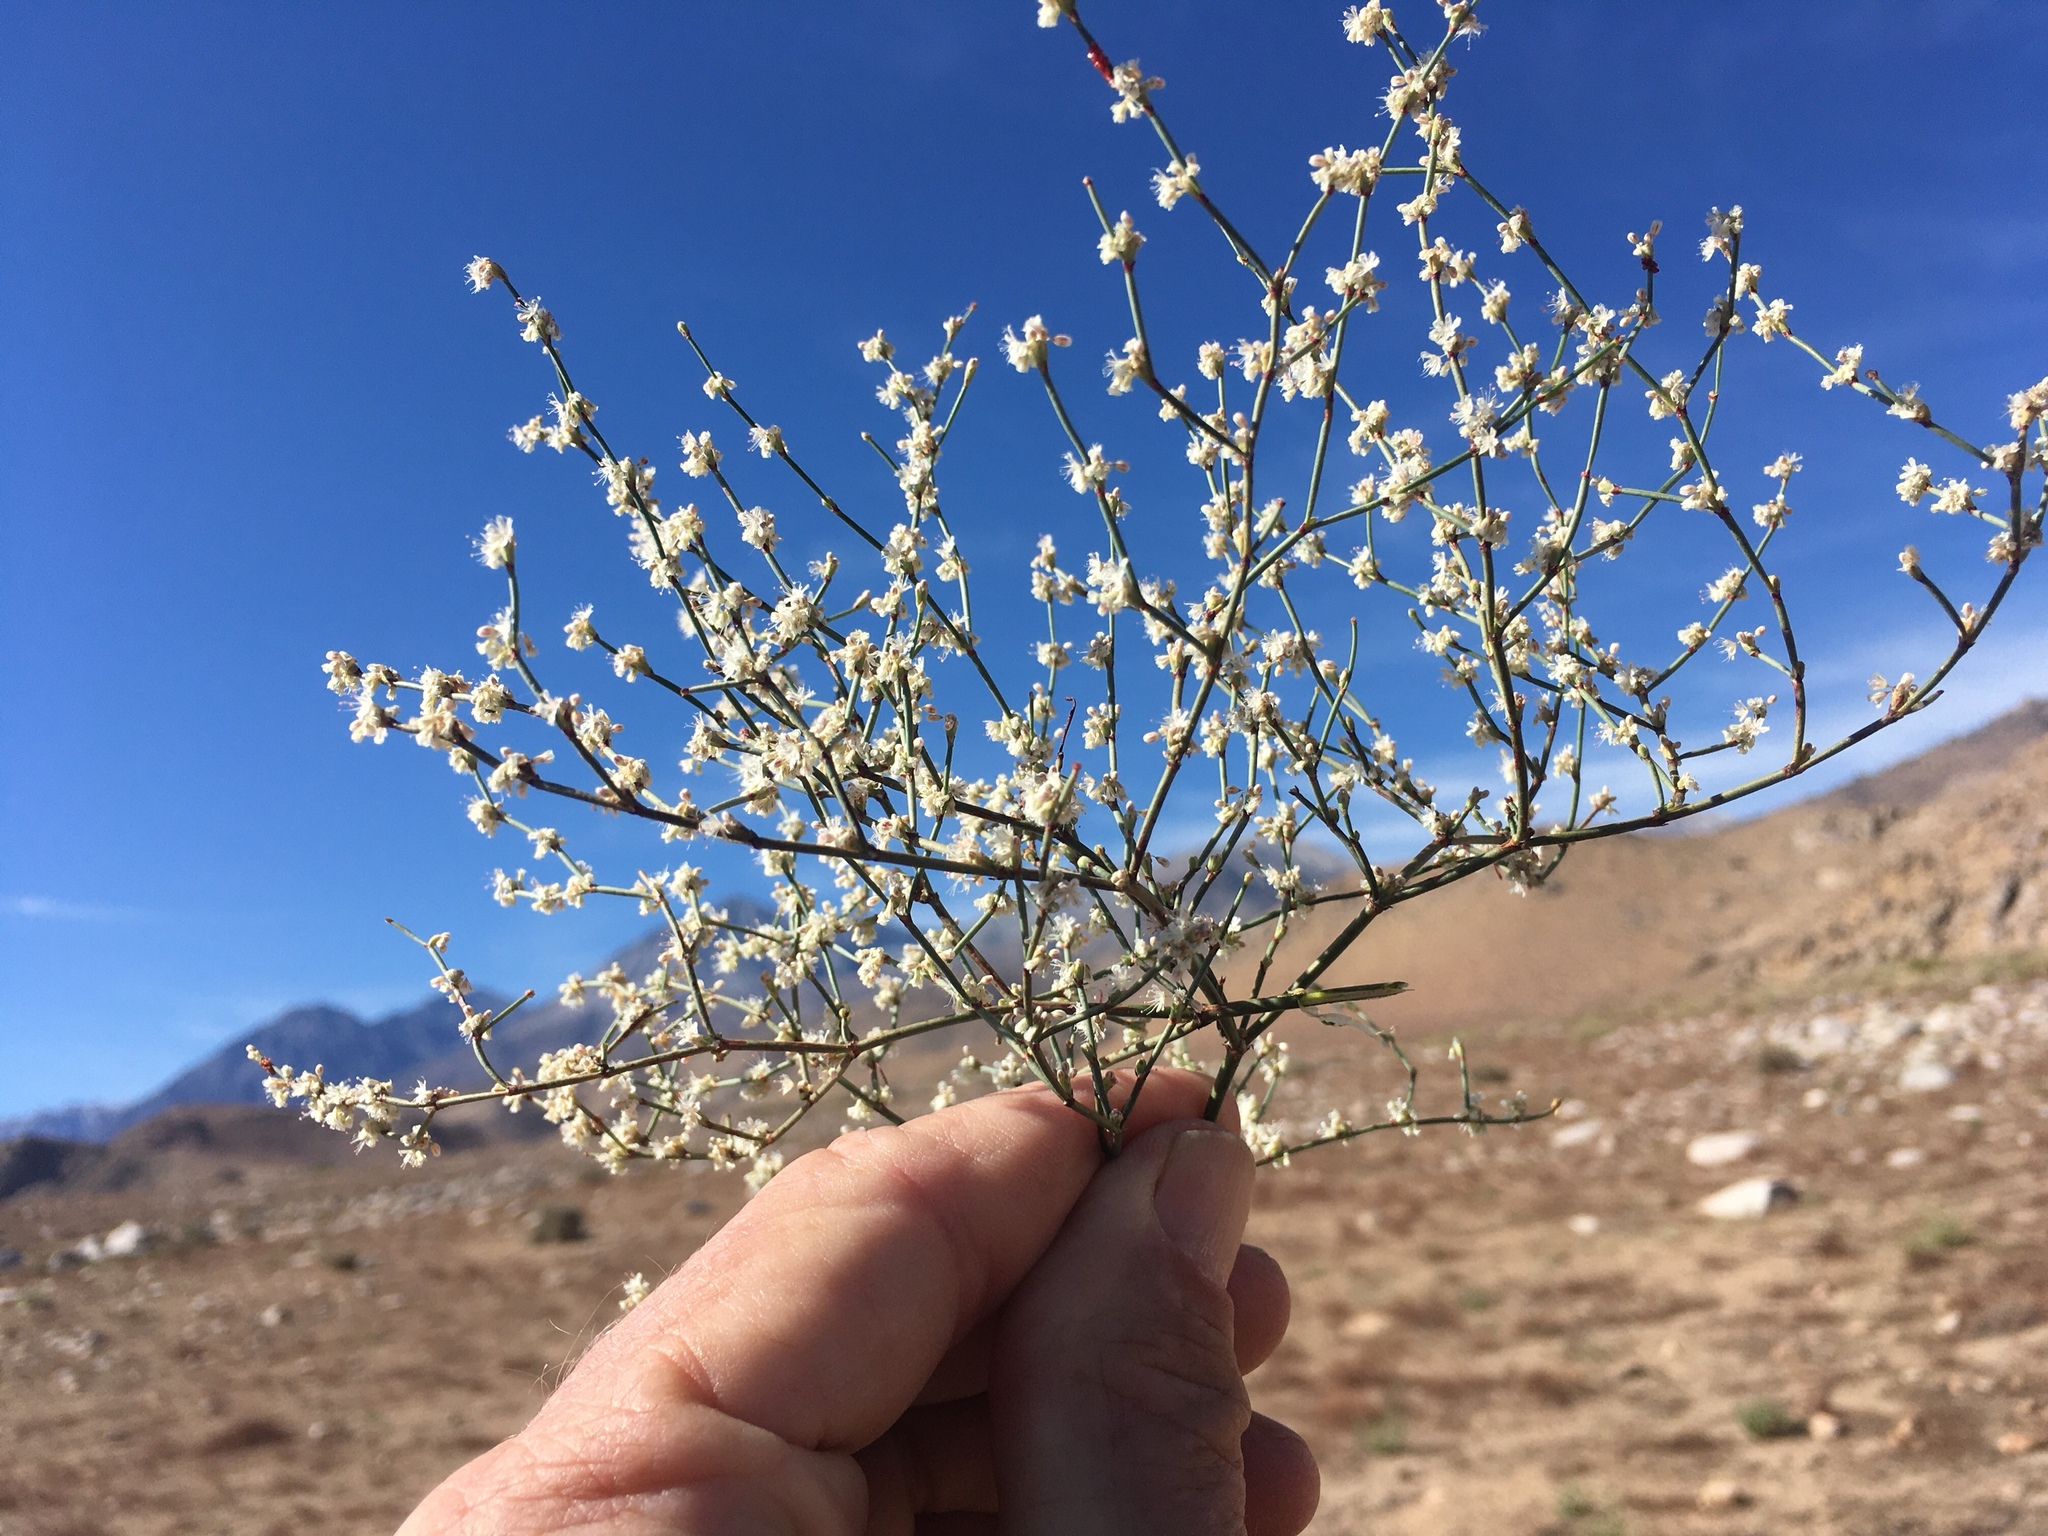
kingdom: Plantae
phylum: Tracheophyta
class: Magnoliopsida
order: Caryophyllales
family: Polygonaceae
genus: Eriogonum
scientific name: Eriogonum baileyi
